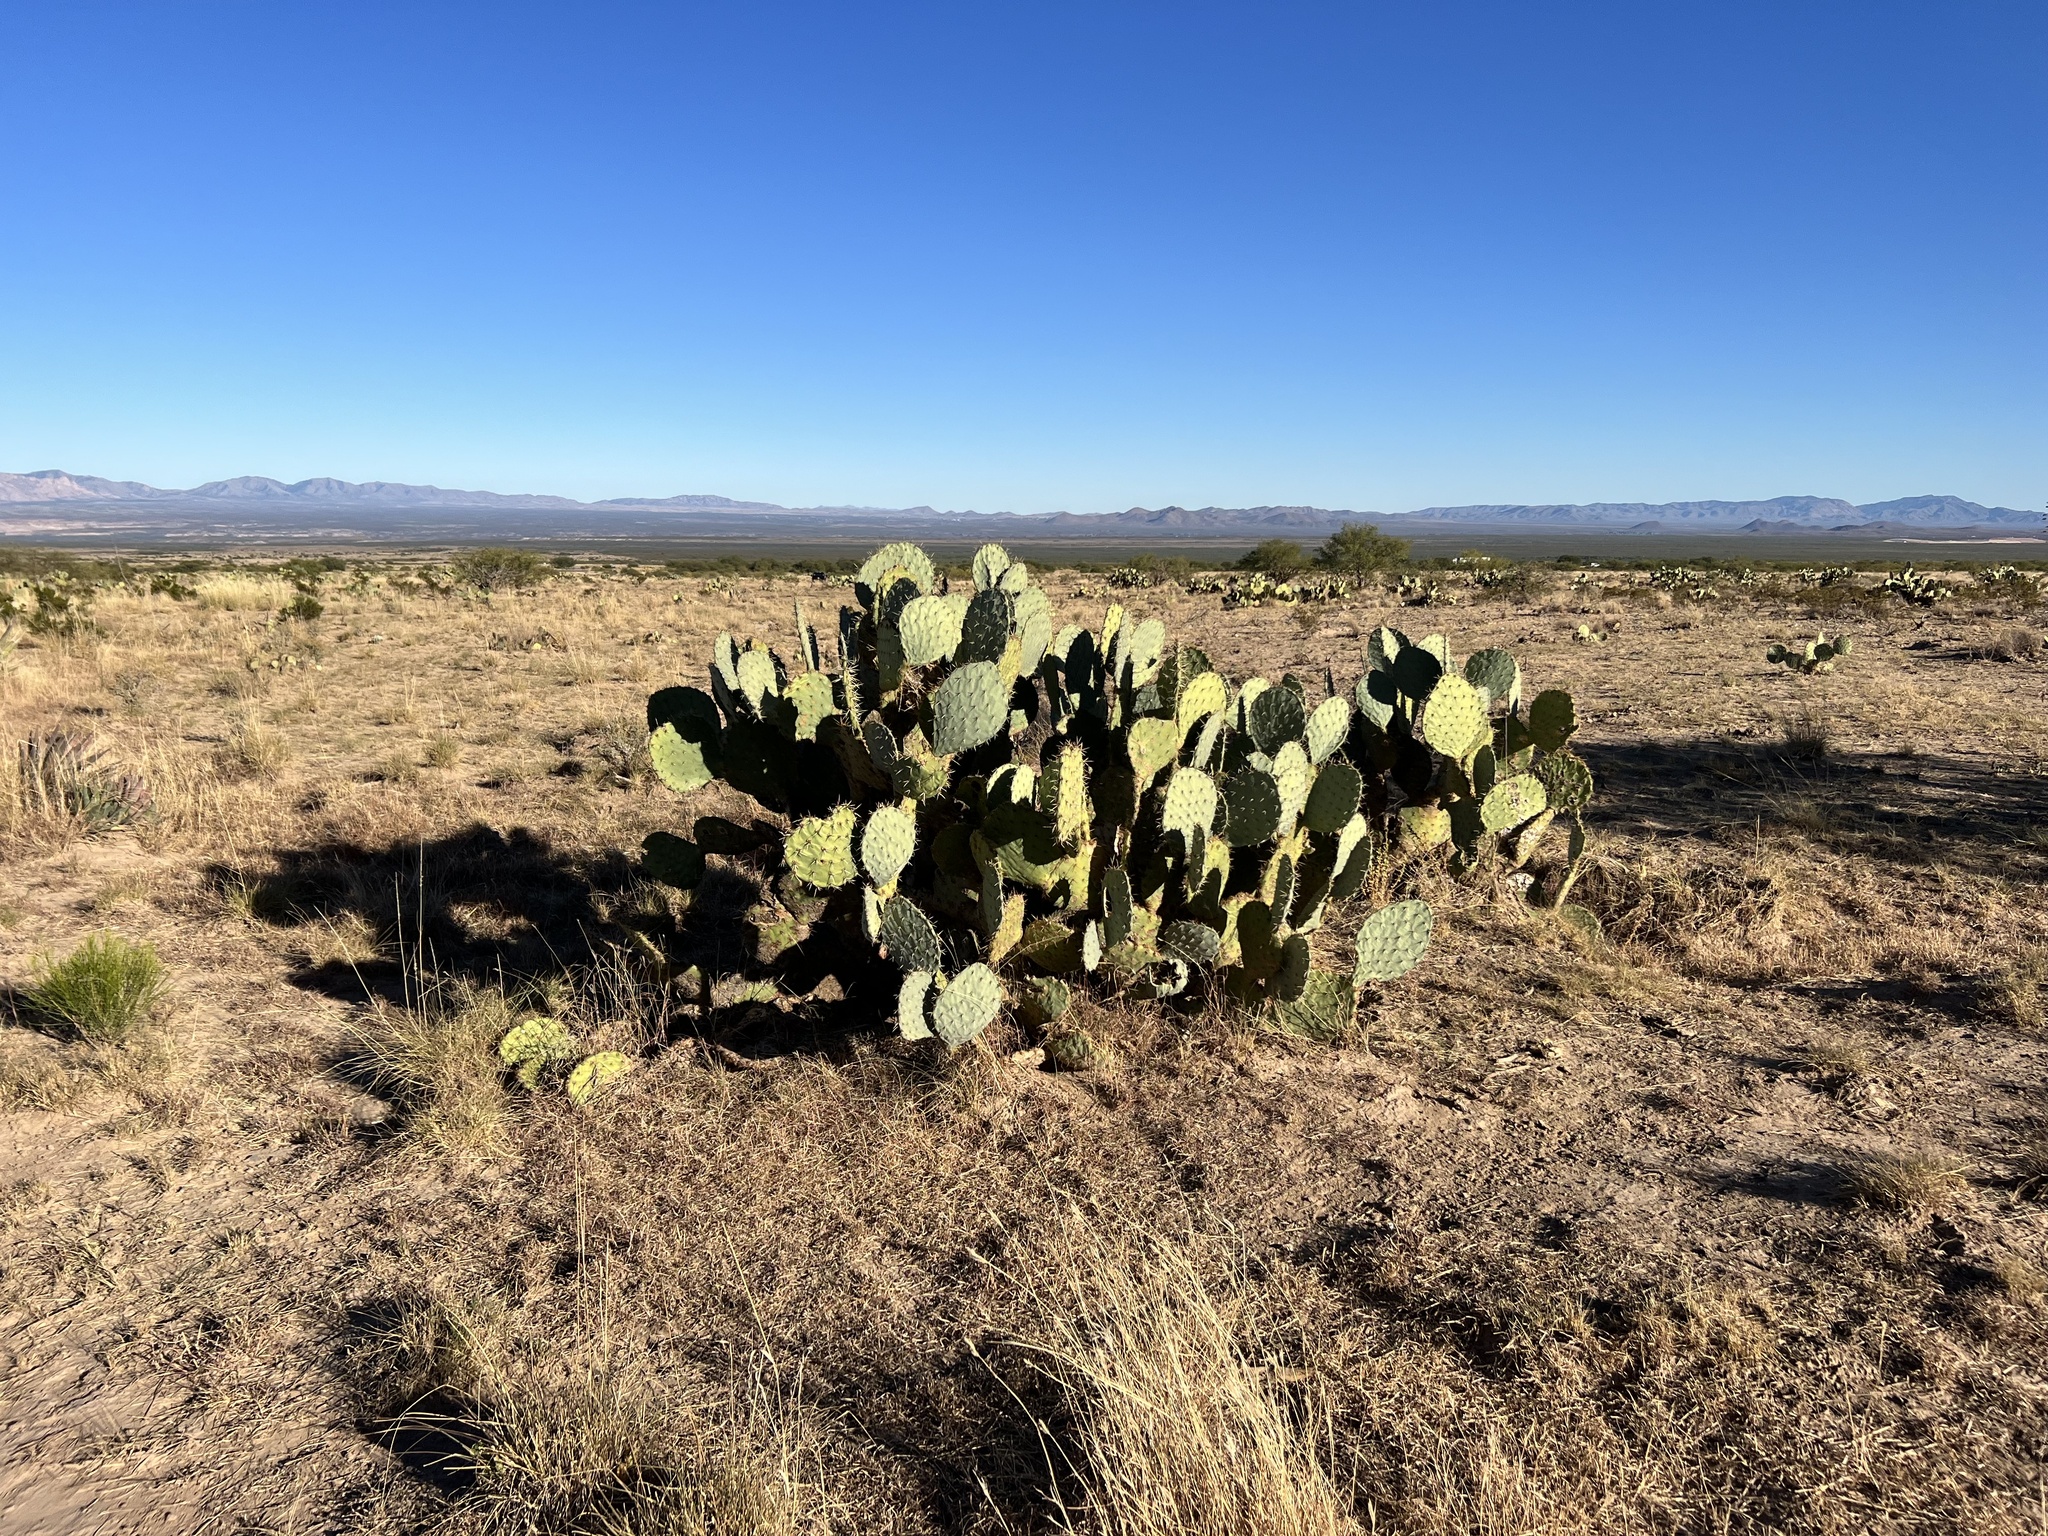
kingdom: Plantae
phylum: Tracheophyta
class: Magnoliopsida
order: Caryophyllales
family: Cactaceae
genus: Opuntia
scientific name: Opuntia engelmannii
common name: Cactus-apple
